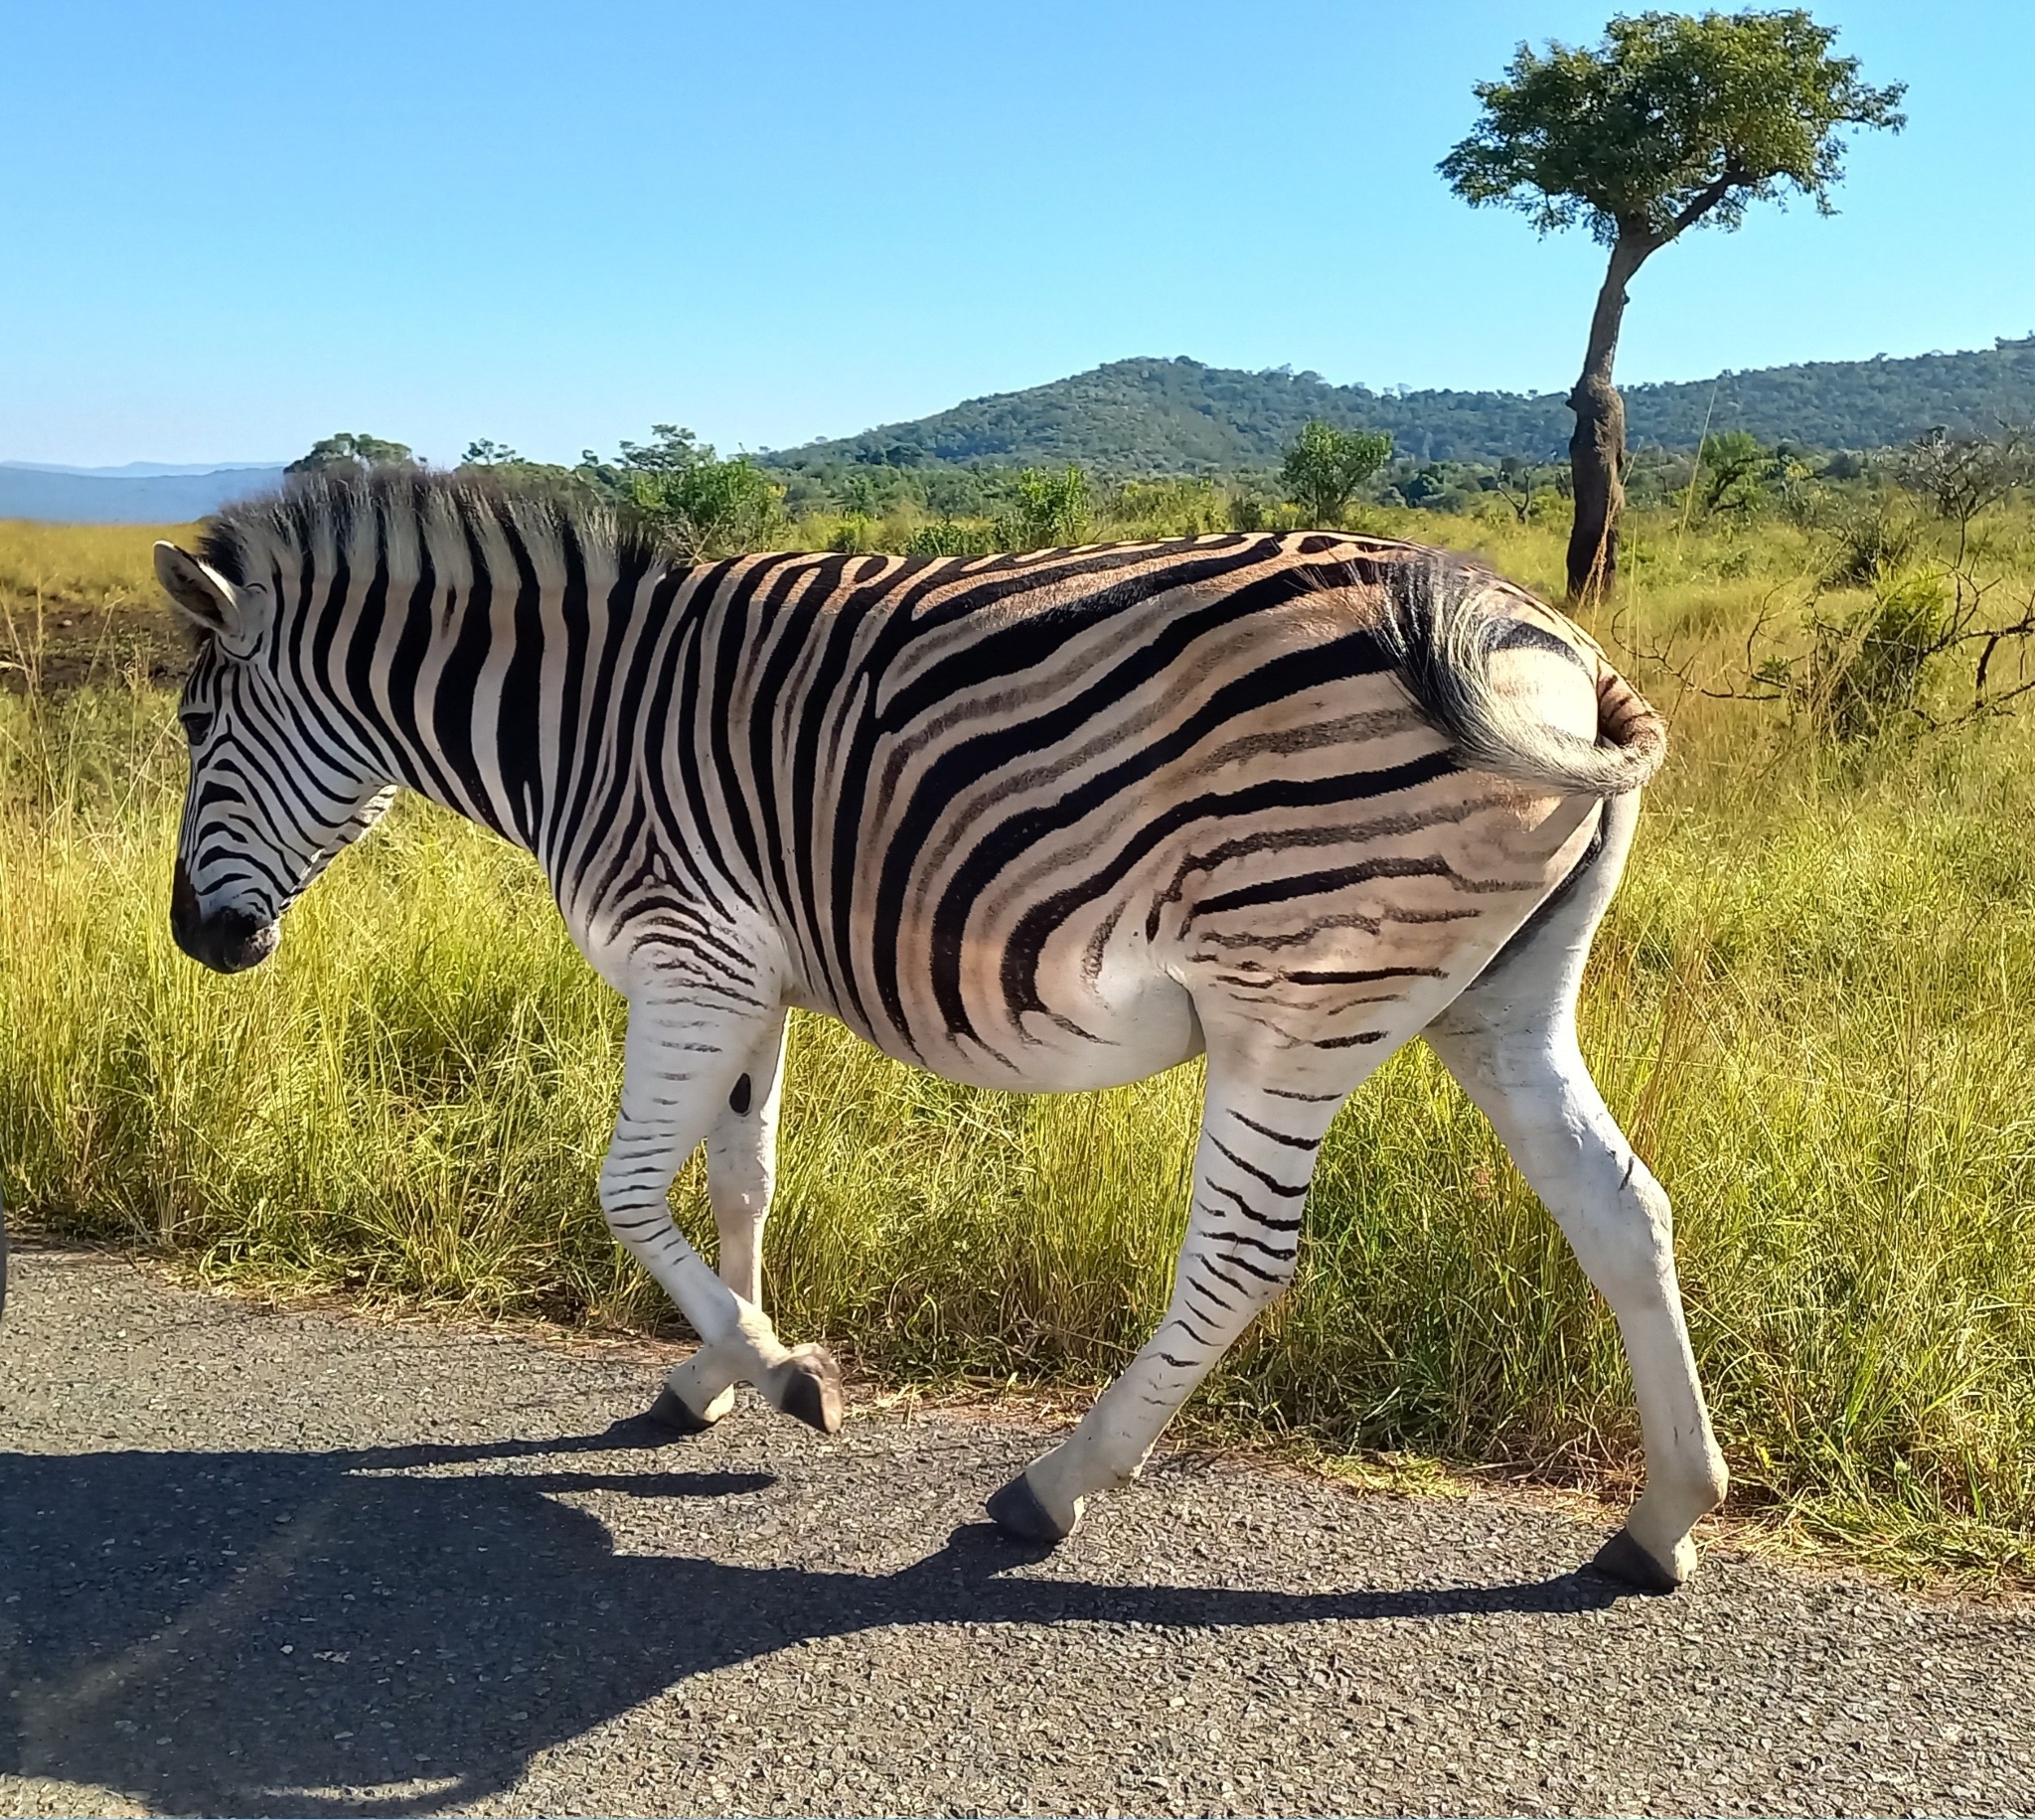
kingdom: Animalia
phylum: Chordata
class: Mammalia
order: Perissodactyla
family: Equidae
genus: Equus
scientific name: Equus quagga
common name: Plains zebra
